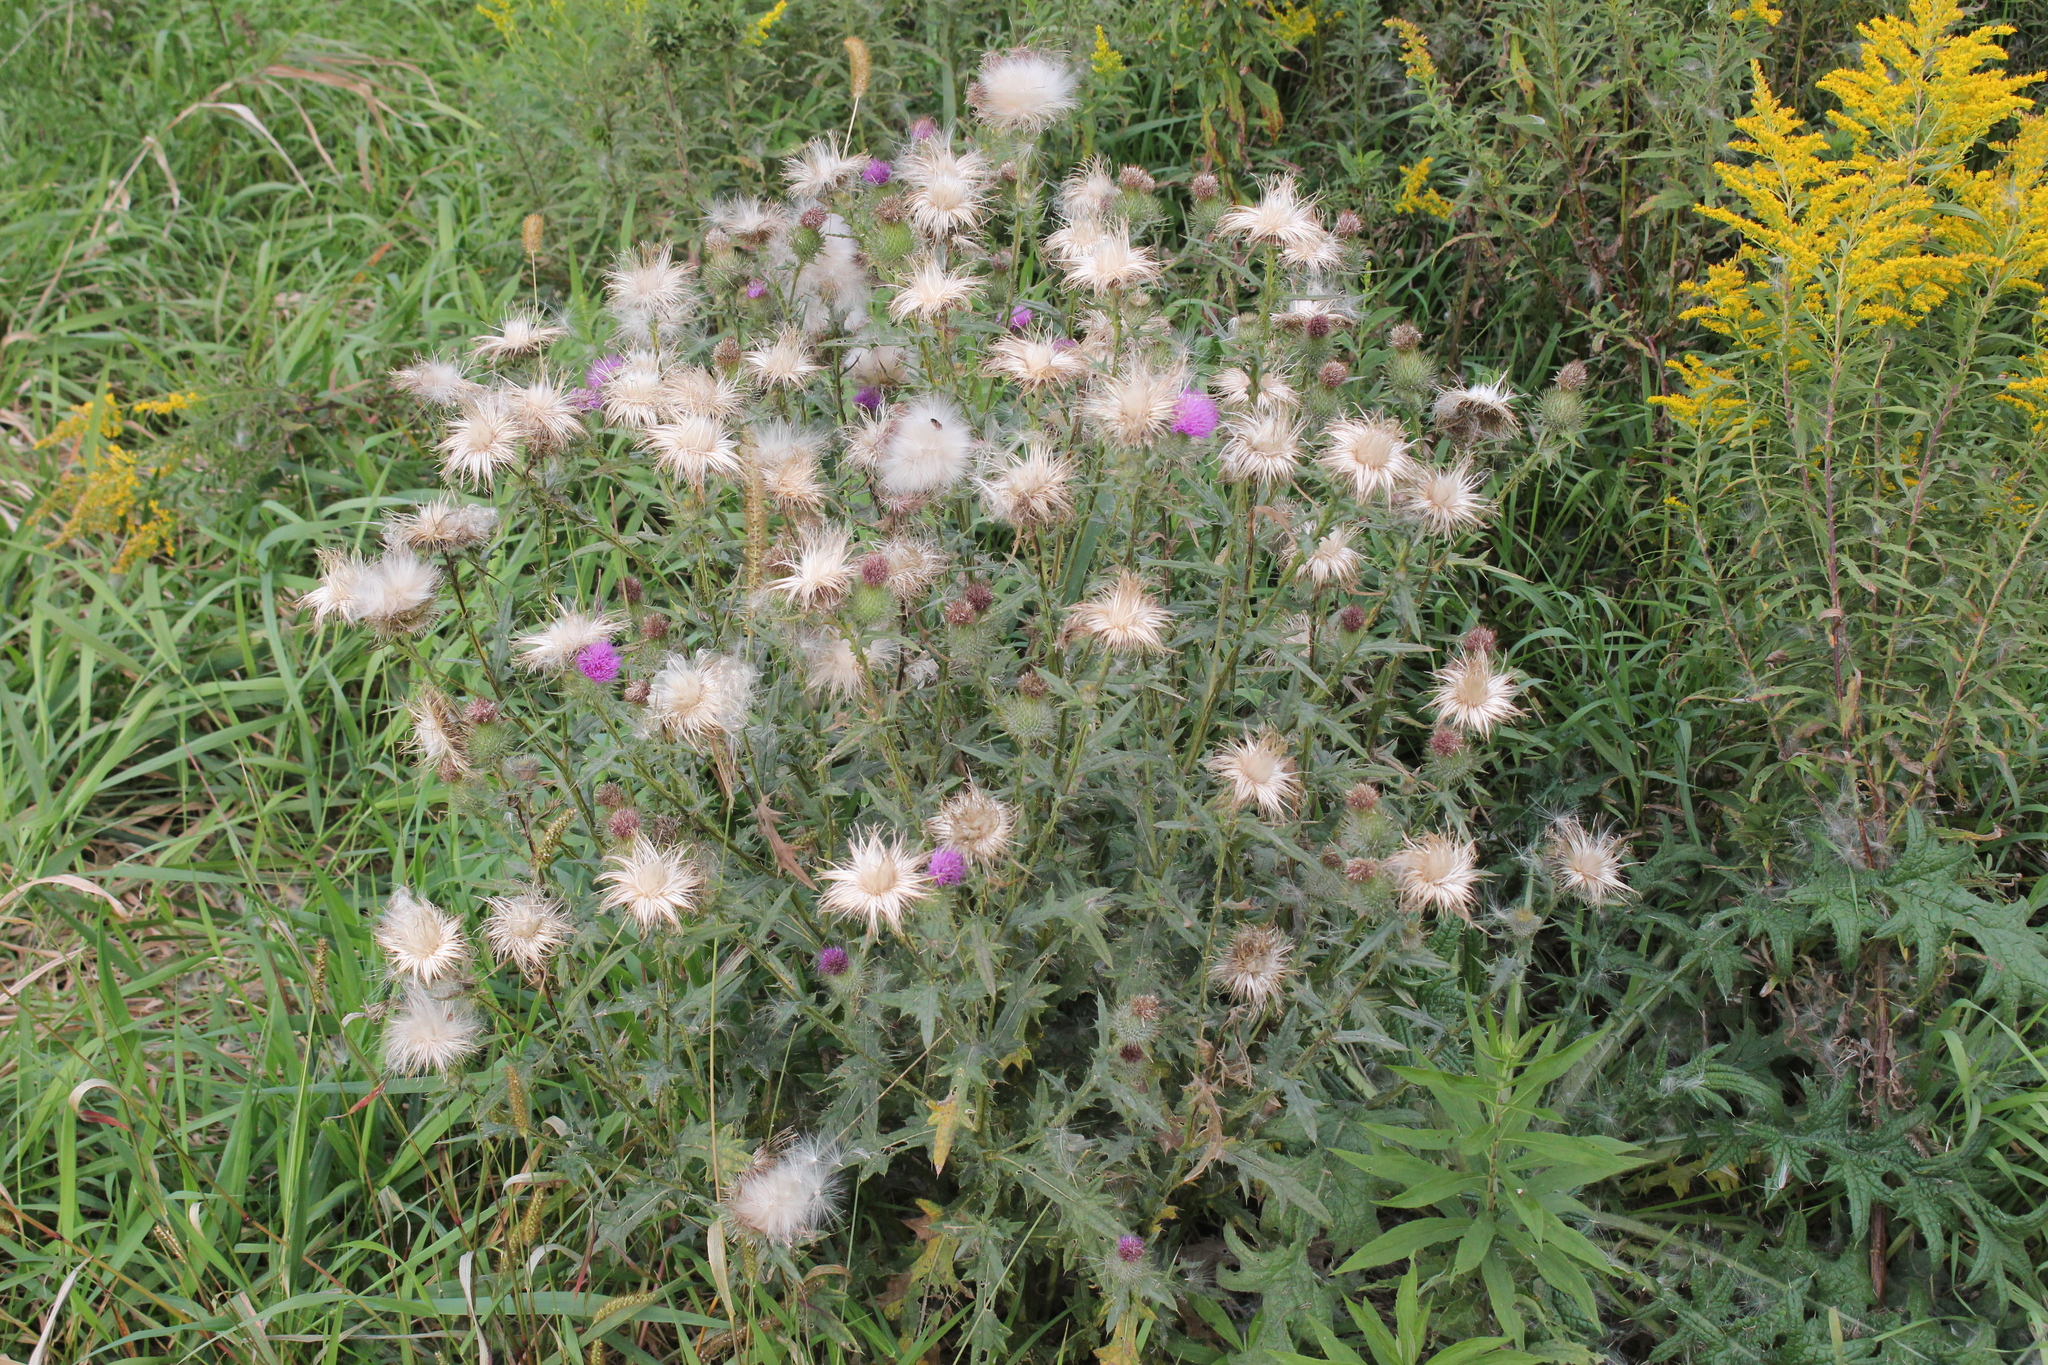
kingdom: Plantae
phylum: Tracheophyta
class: Magnoliopsida
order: Asterales
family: Asteraceae
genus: Cirsium
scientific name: Cirsium vulgare
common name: Bull thistle
